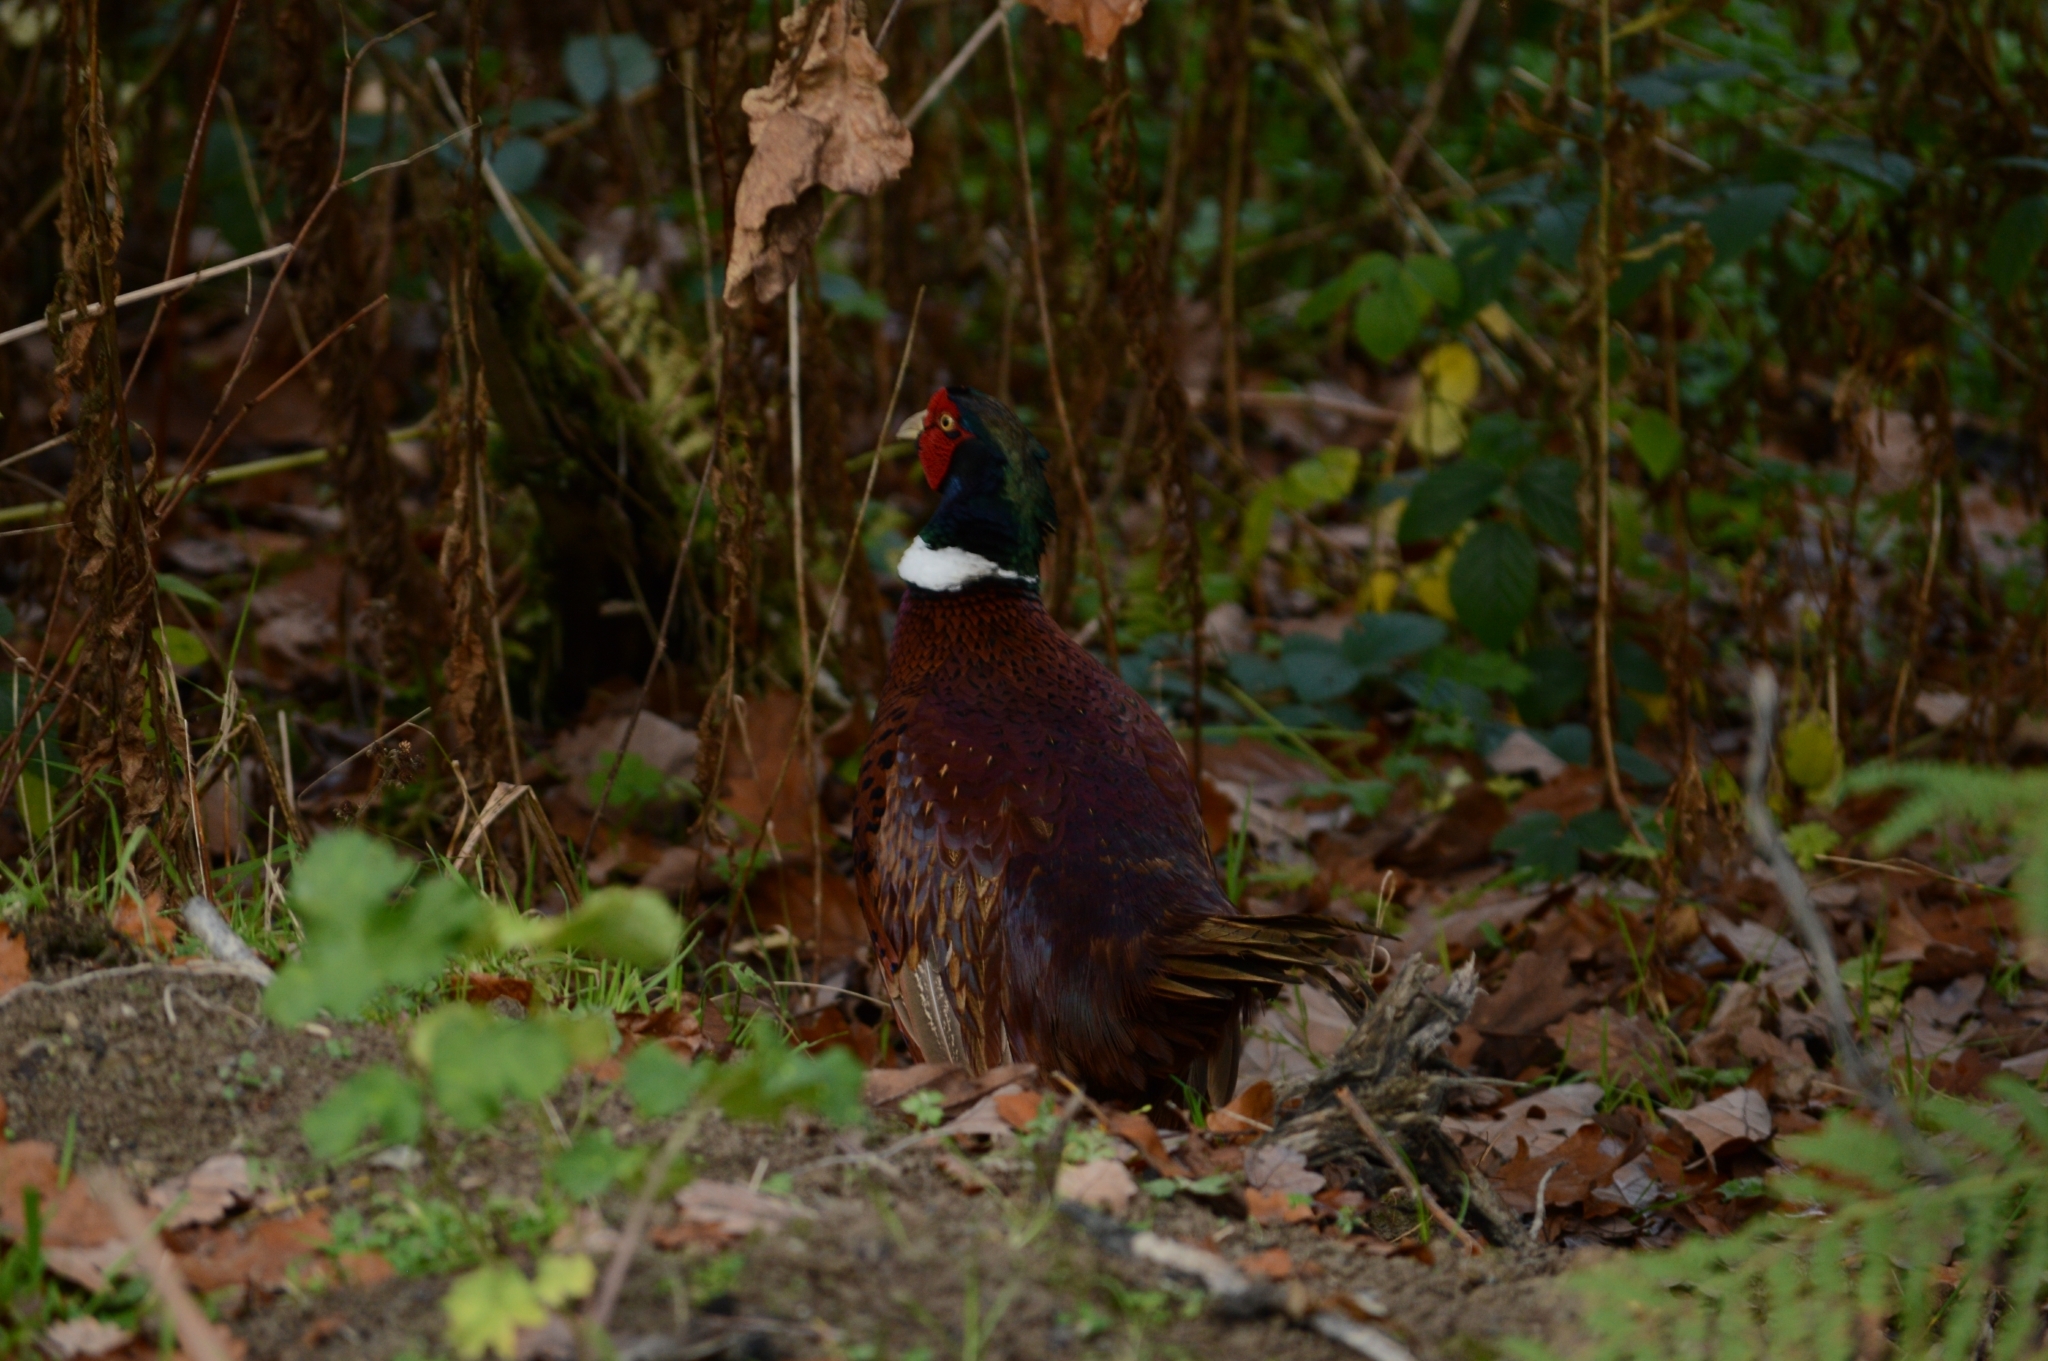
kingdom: Animalia
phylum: Chordata
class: Aves
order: Galliformes
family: Phasianidae
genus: Phasianus
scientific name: Phasianus colchicus
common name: Common pheasant
